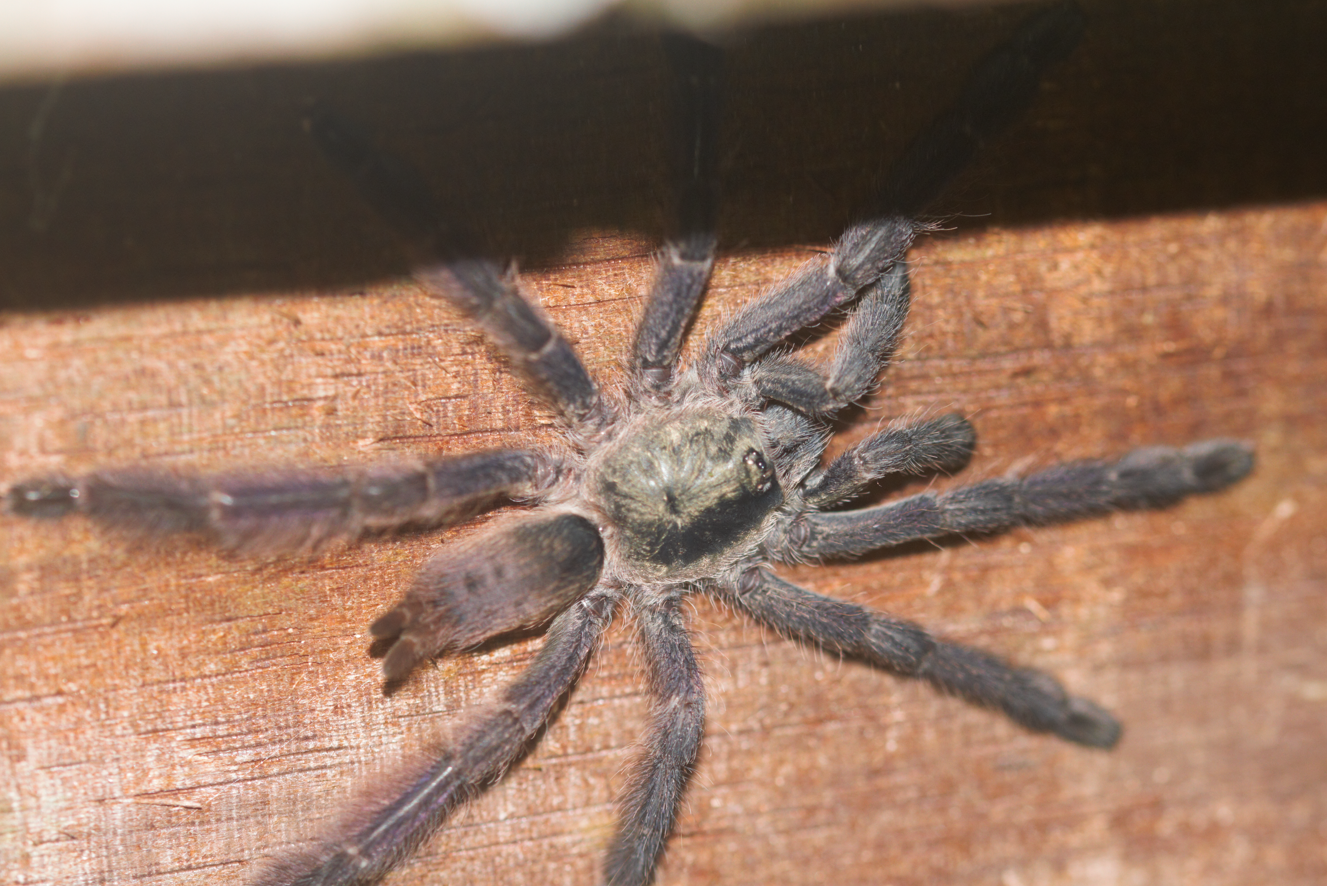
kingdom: Animalia
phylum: Arthropoda
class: Arachnida
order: Araneae
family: Theraphosidae
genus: Tapinauchenius
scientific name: Tapinauchenius plumipes
